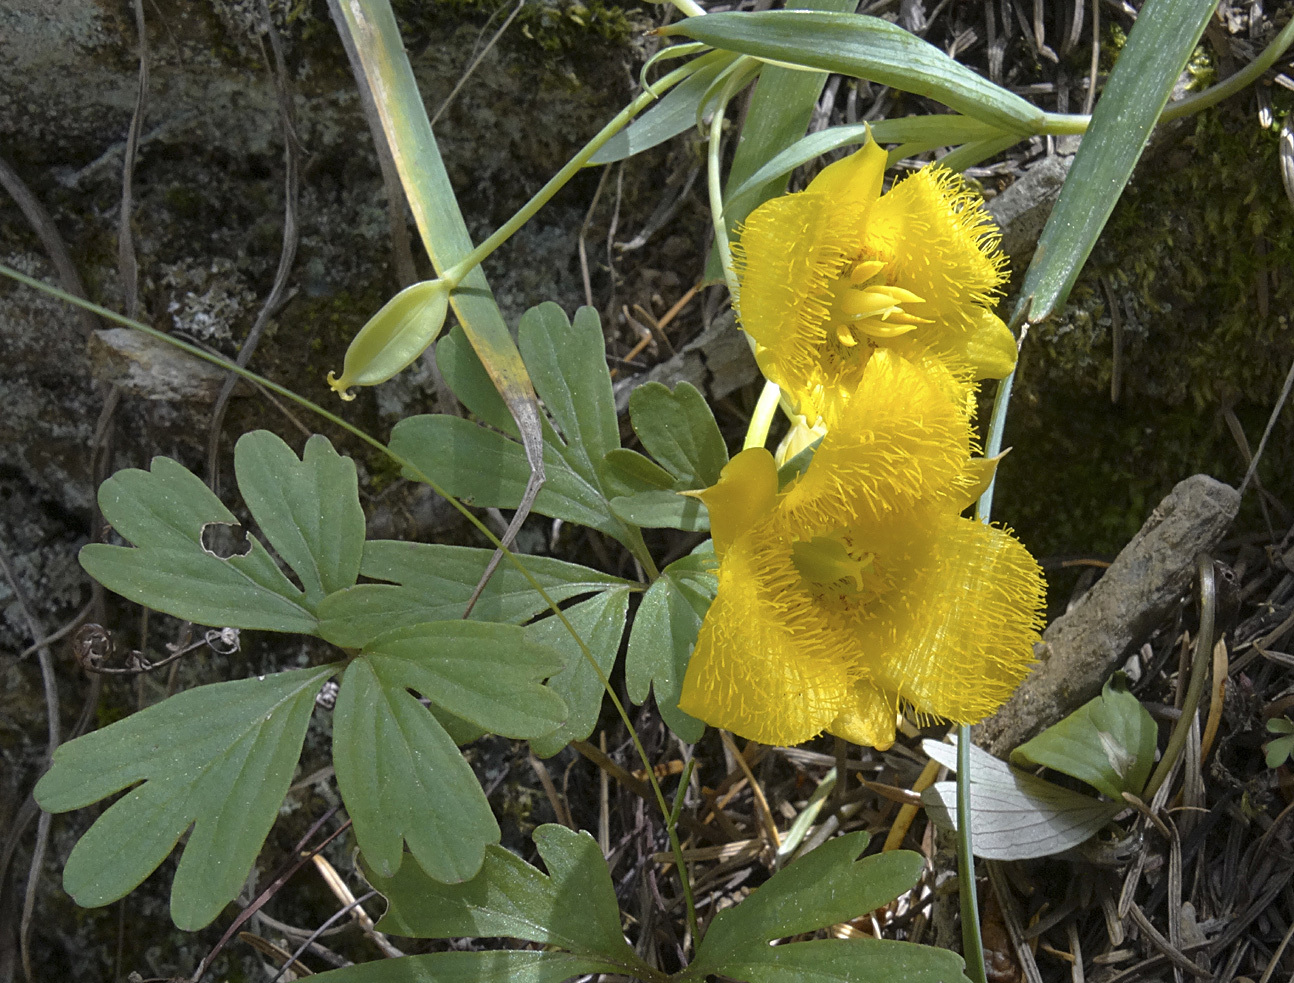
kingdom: Plantae
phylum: Tracheophyta
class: Liliopsida
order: Liliales
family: Liliaceae
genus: Calochortus
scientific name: Calochortus monophyllus
